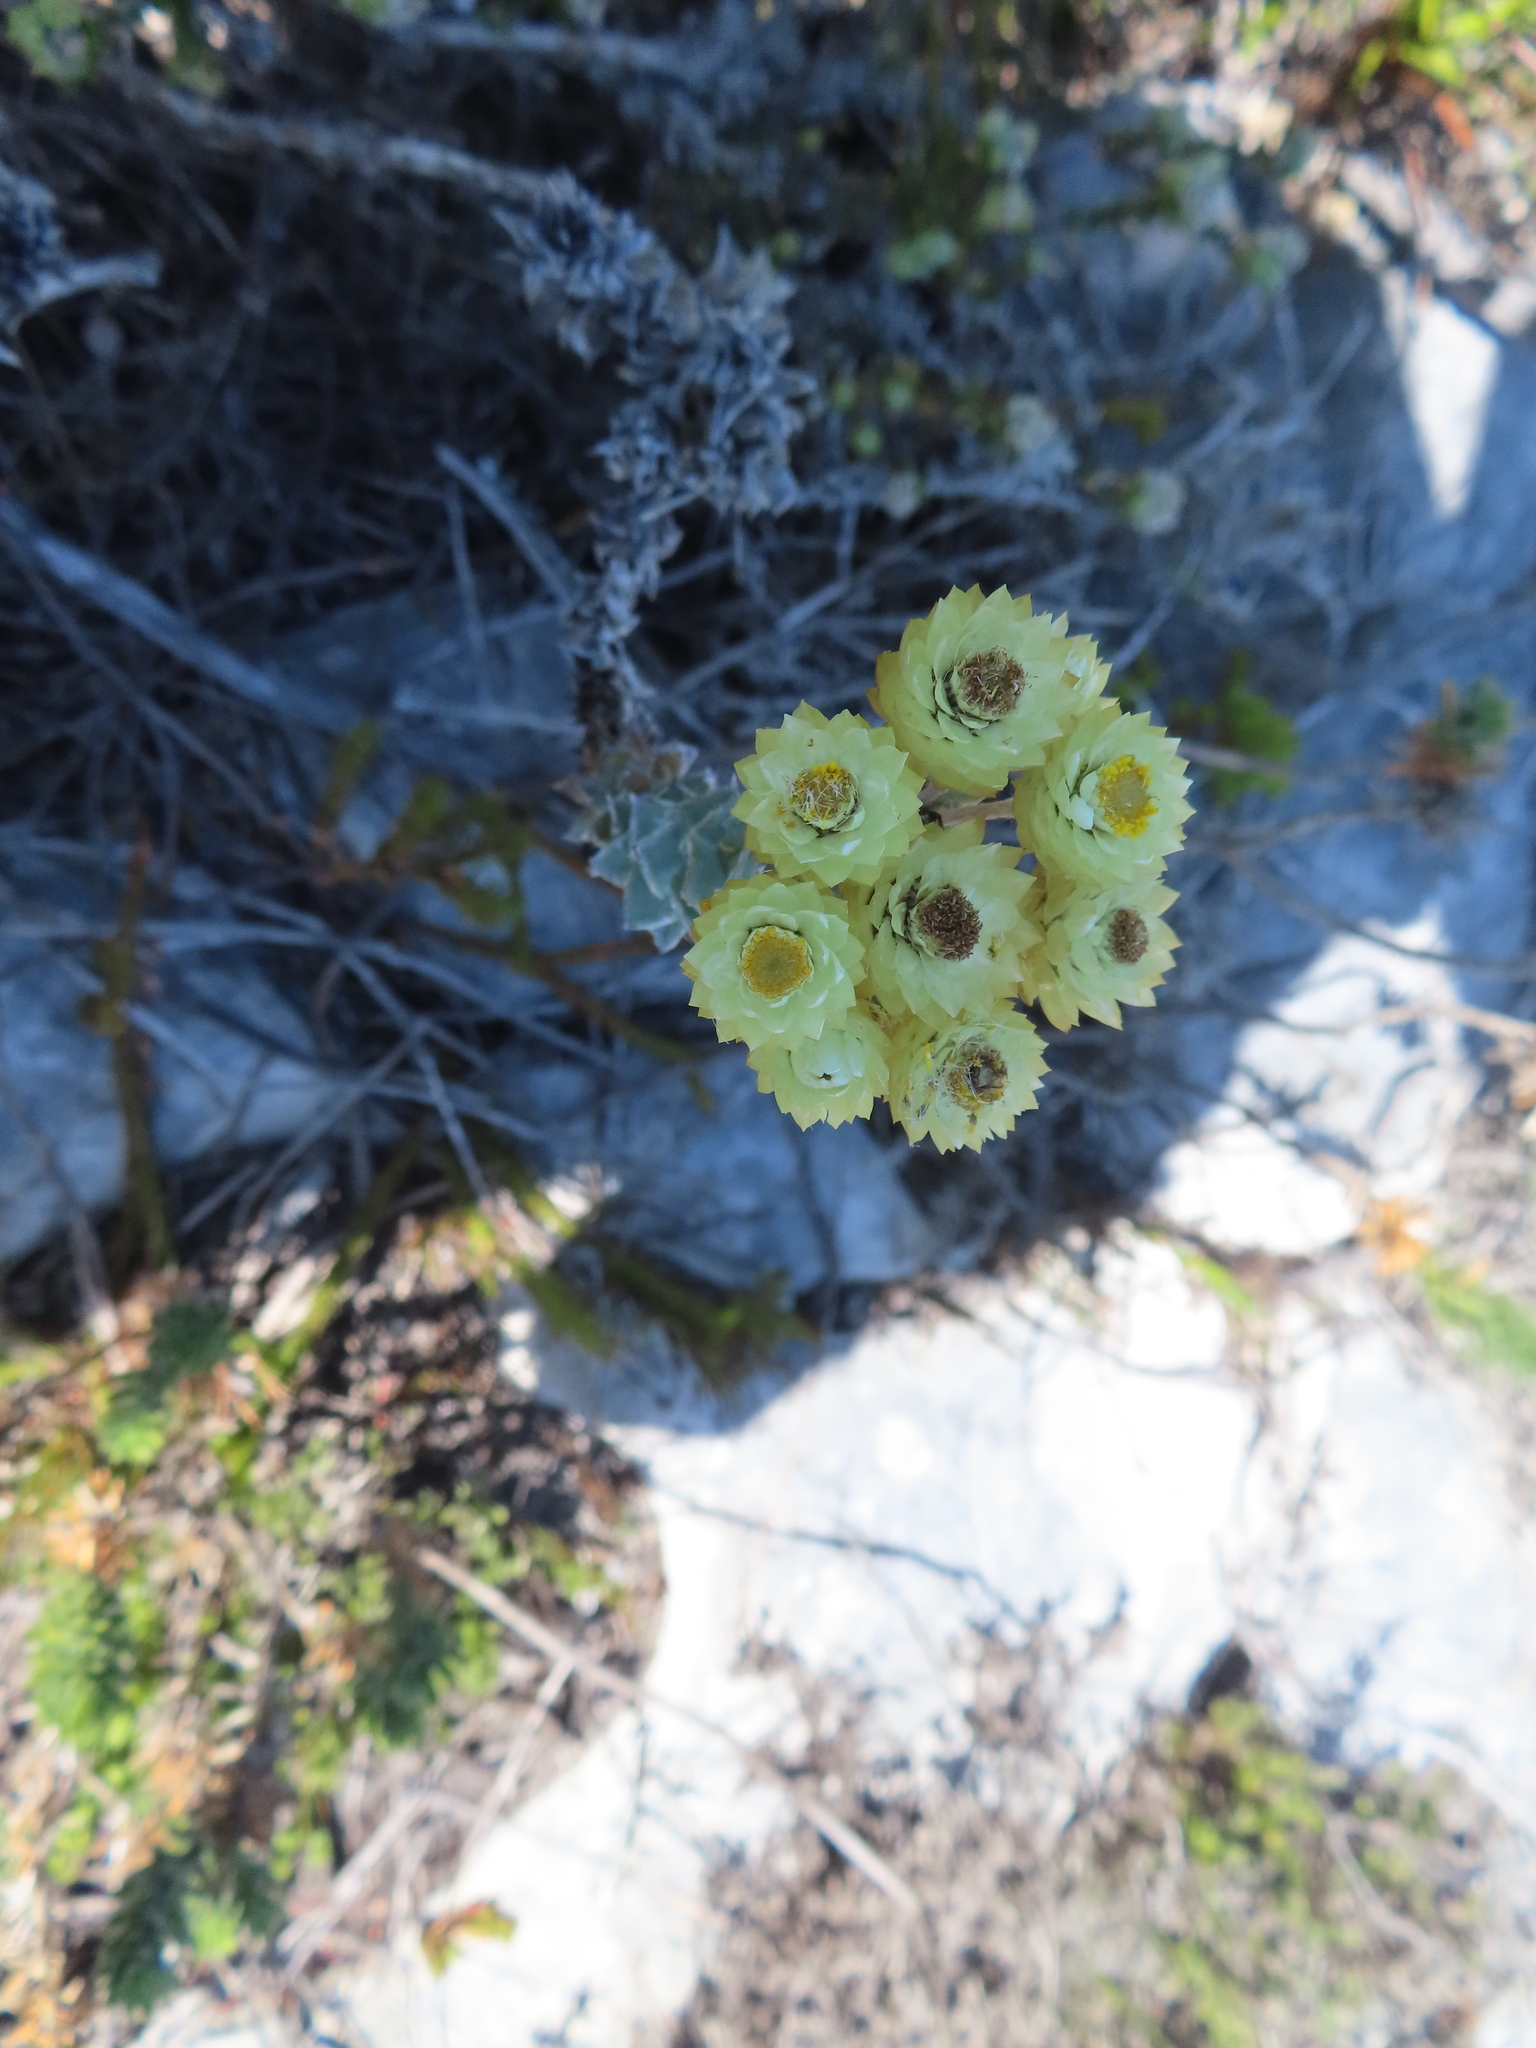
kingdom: Plantae
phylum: Tracheophyta
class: Magnoliopsida
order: Asterales
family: Asteraceae
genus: Achyranthemum
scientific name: Achyranthemum mucronatum
